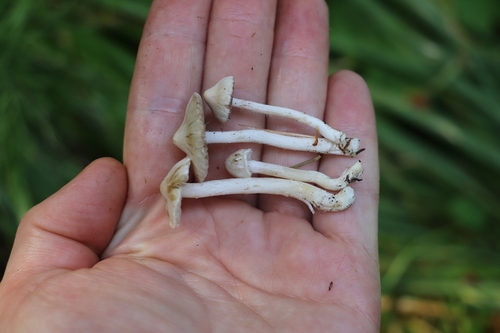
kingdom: Fungi
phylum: Basidiomycota
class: Agaricomycetes
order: Agaricales
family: Inocybaceae
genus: Inocybe
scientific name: Inocybe geophylla
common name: White fibrecap
